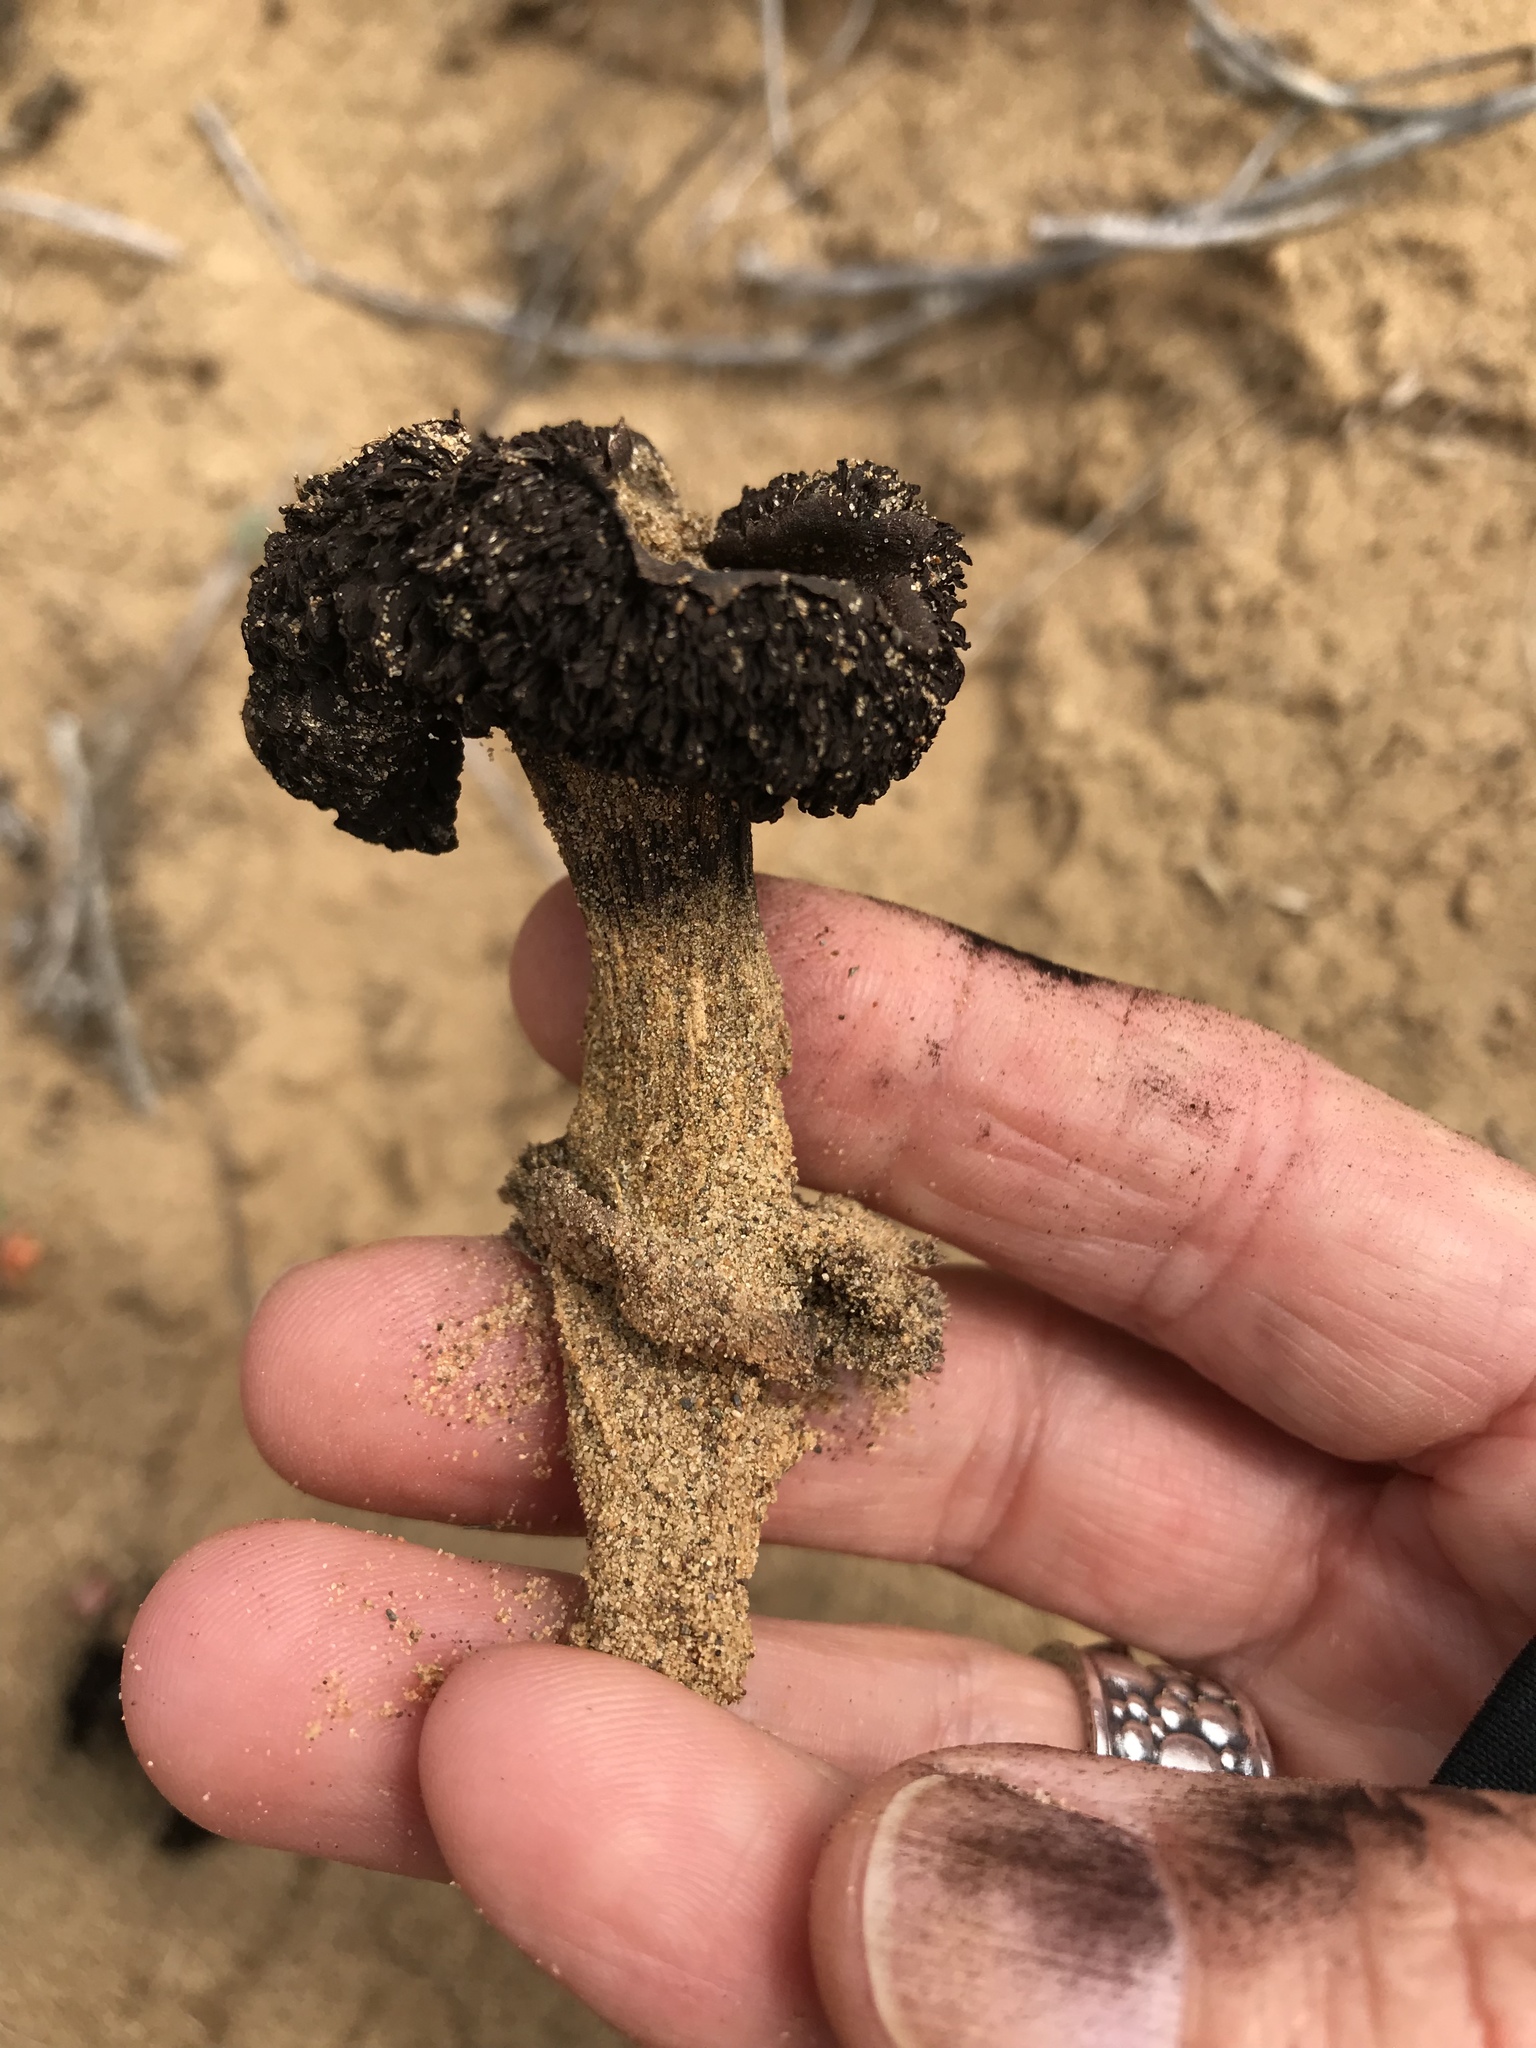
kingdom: Fungi
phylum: Basidiomycota
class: Agaricomycetes
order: Agaricales
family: Agaricaceae
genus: Agaricus
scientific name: Agaricus zelleri
